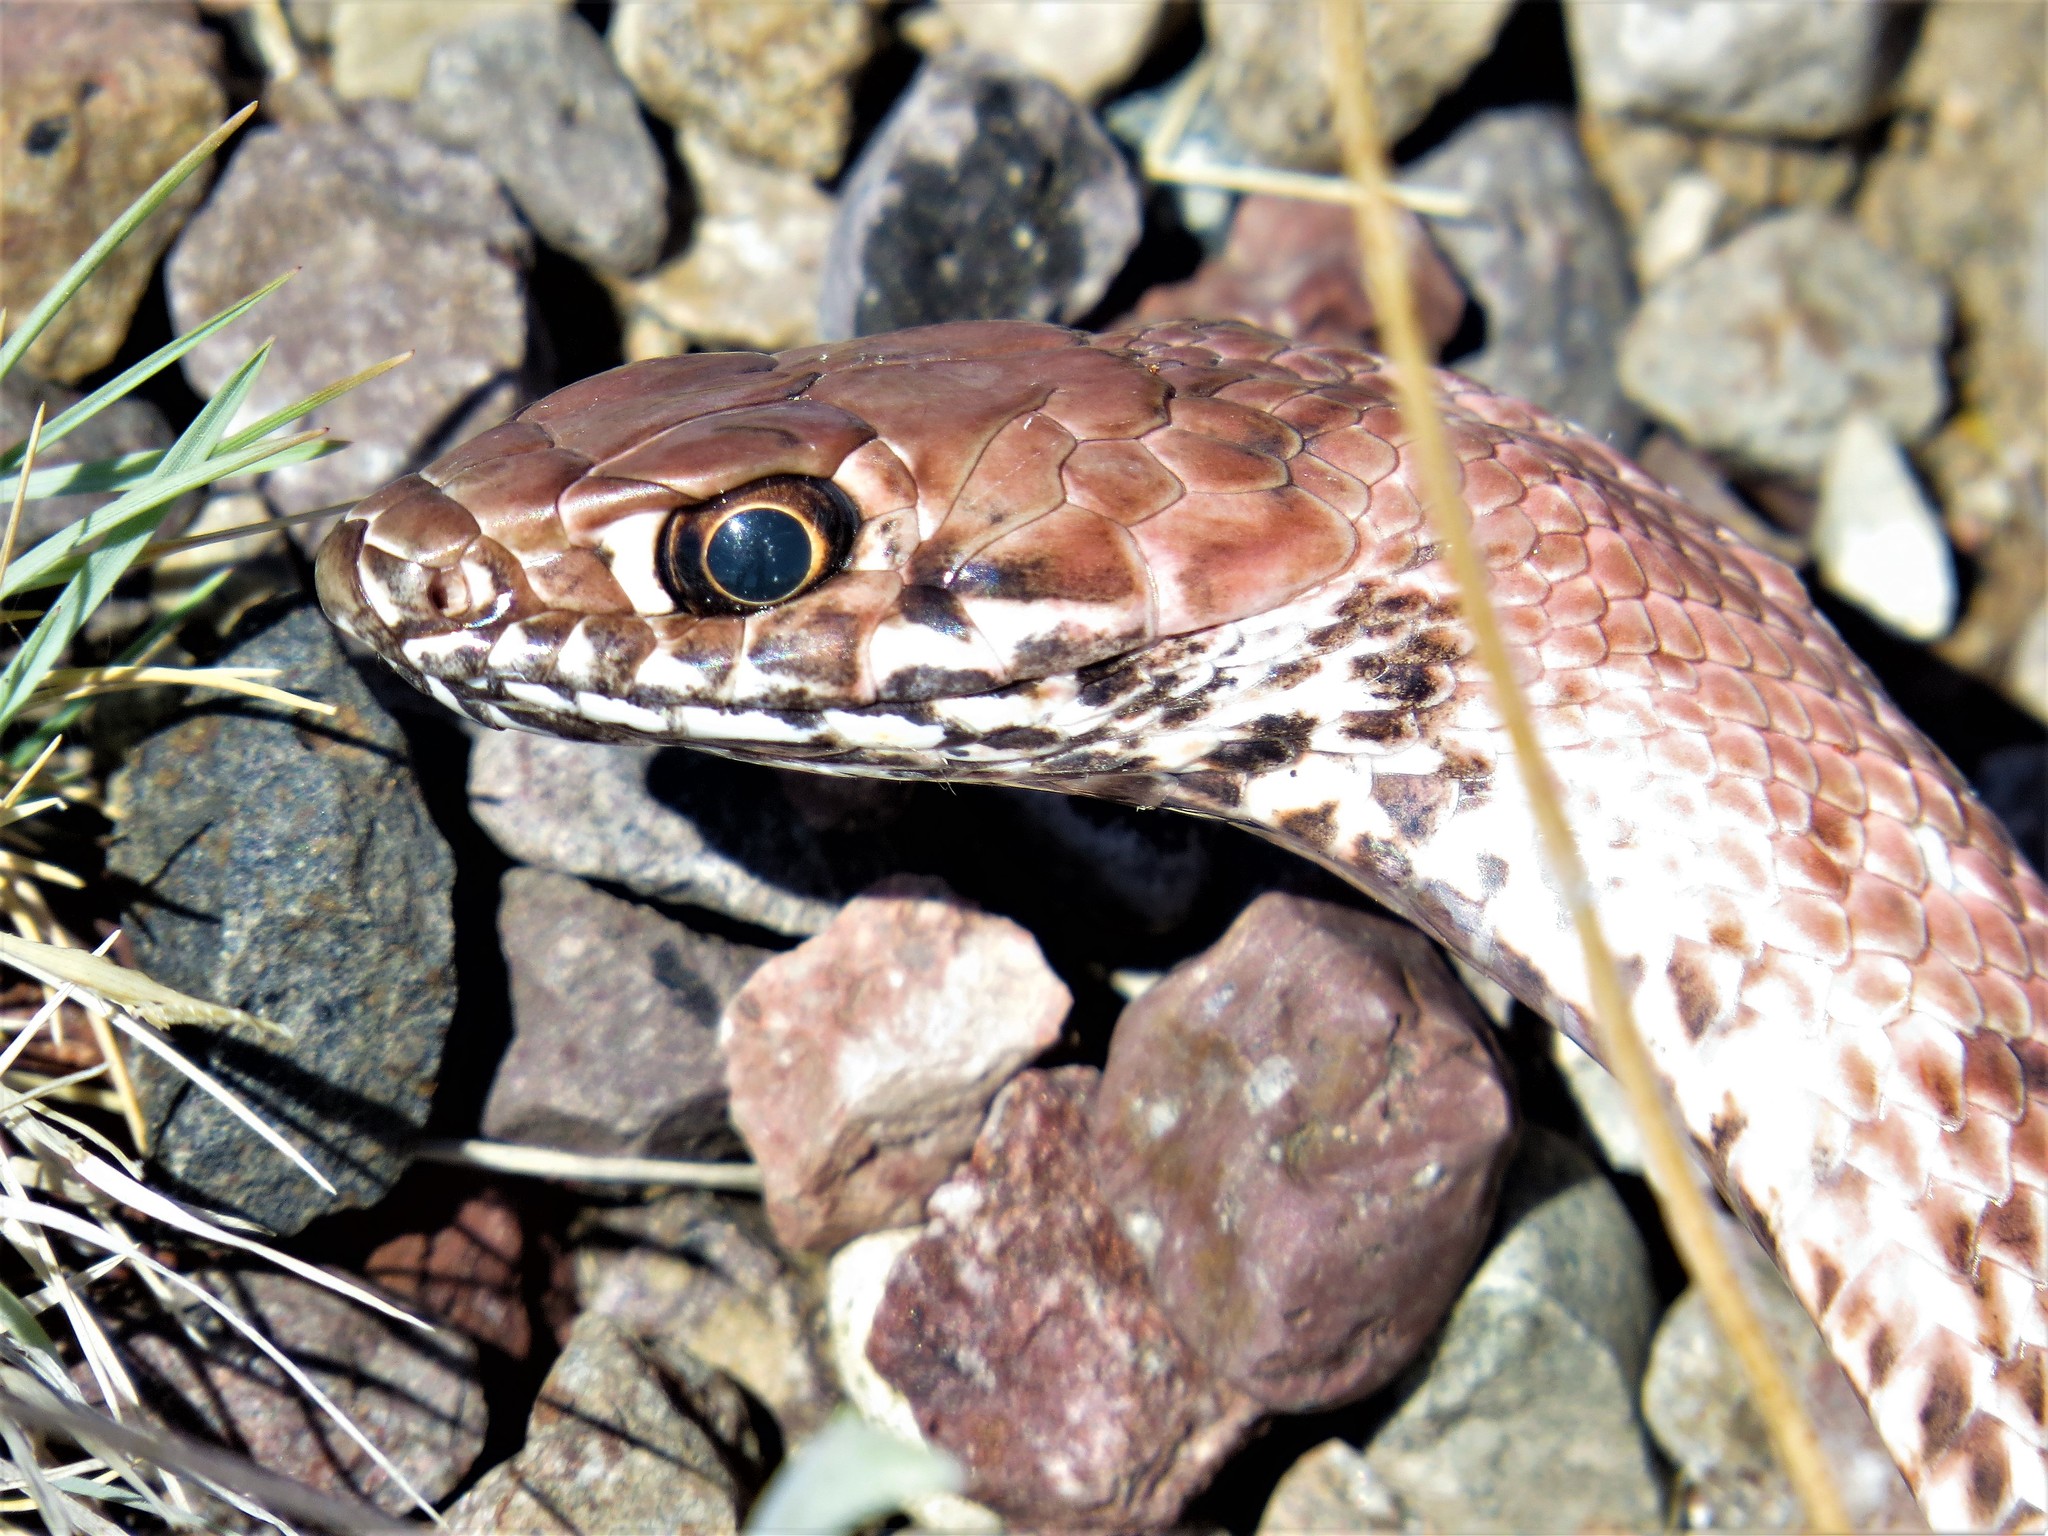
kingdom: Animalia
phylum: Chordata
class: Squamata
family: Colubridae
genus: Masticophis
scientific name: Masticophis flagellum
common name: Coachwhip
